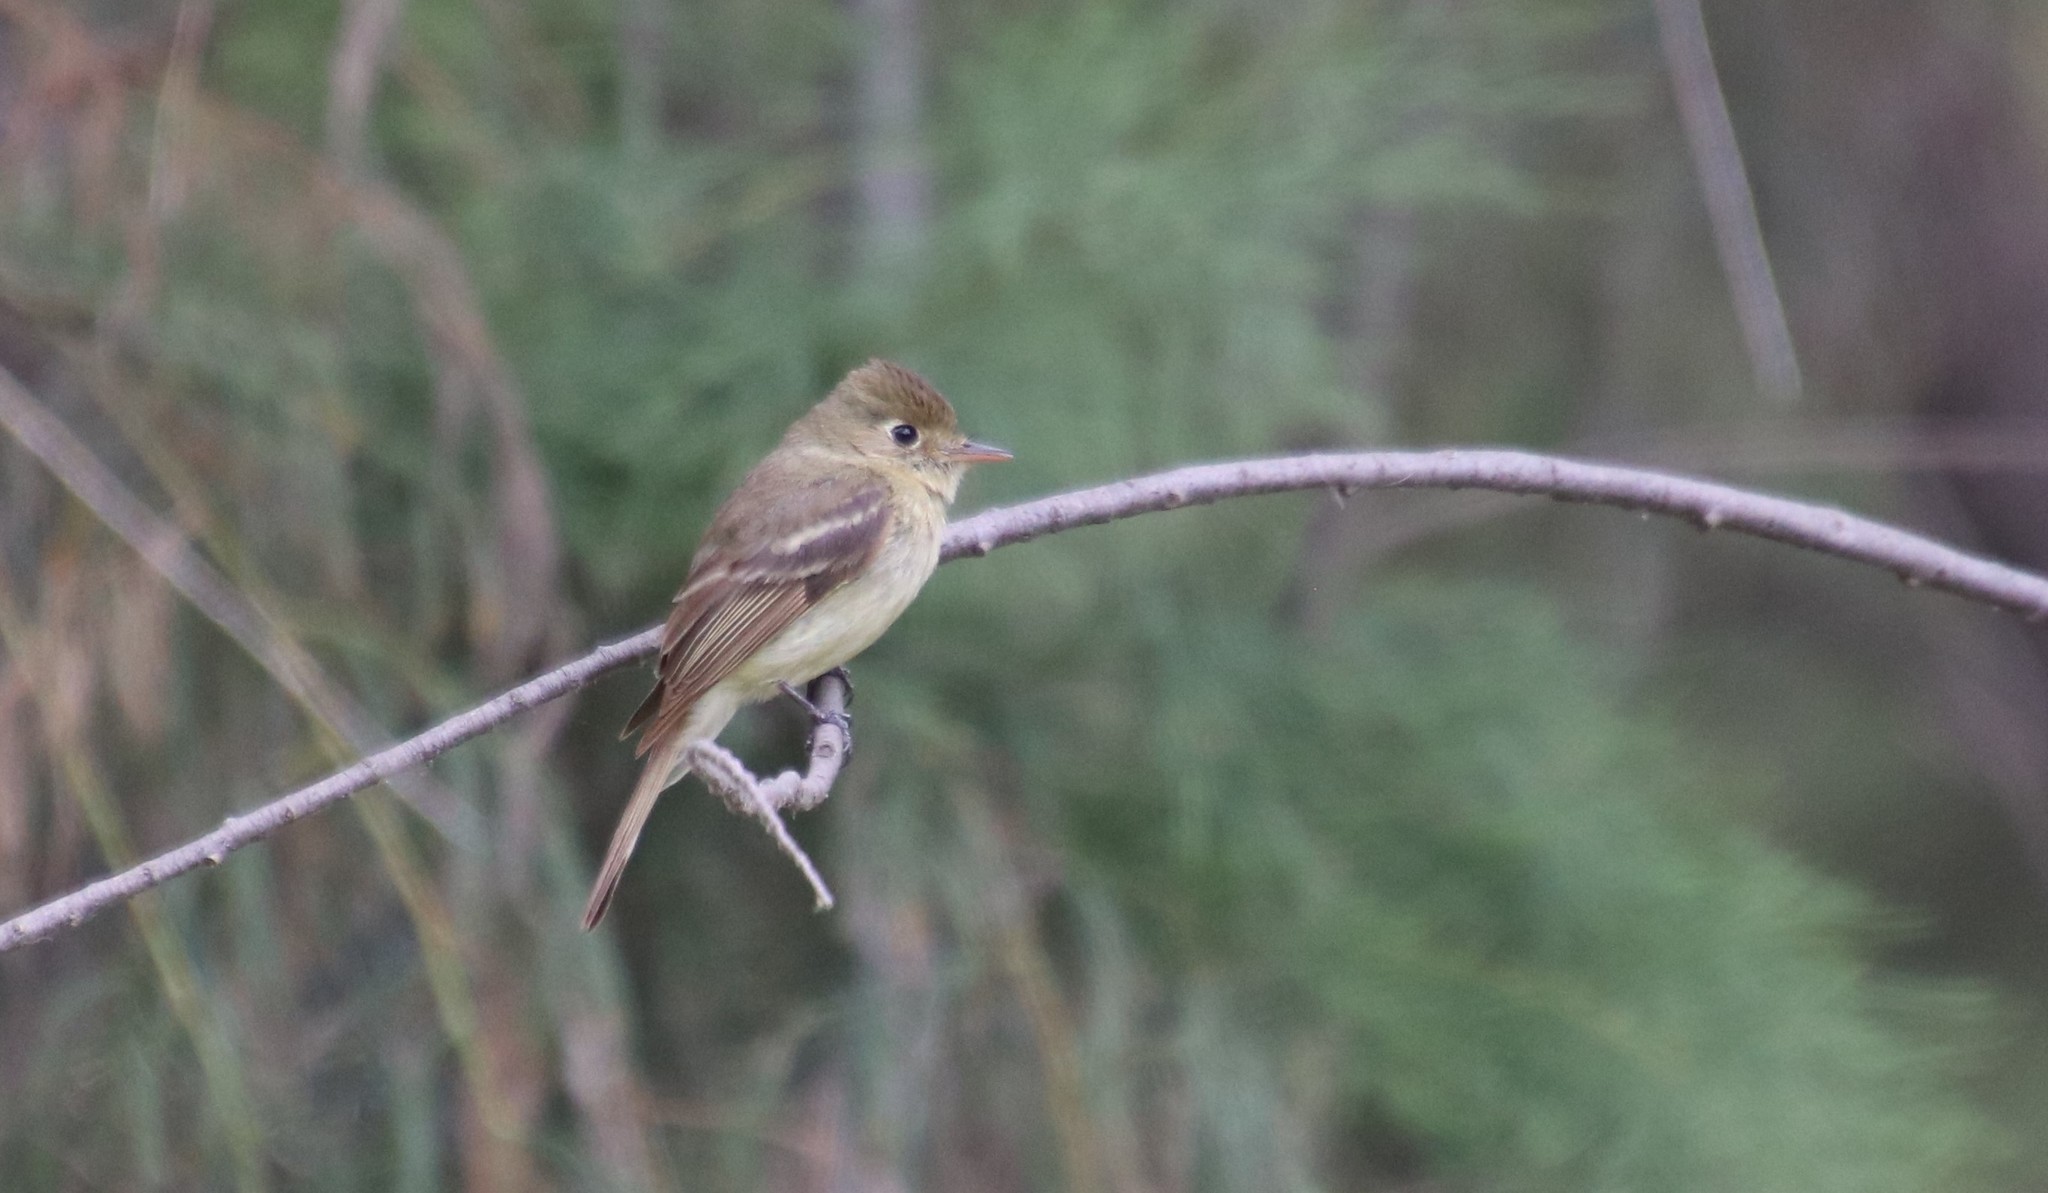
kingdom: Animalia
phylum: Chordata
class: Aves
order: Passeriformes
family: Tyrannidae
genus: Empidonax
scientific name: Empidonax difficilis
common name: Pacific-slope flycatcher
